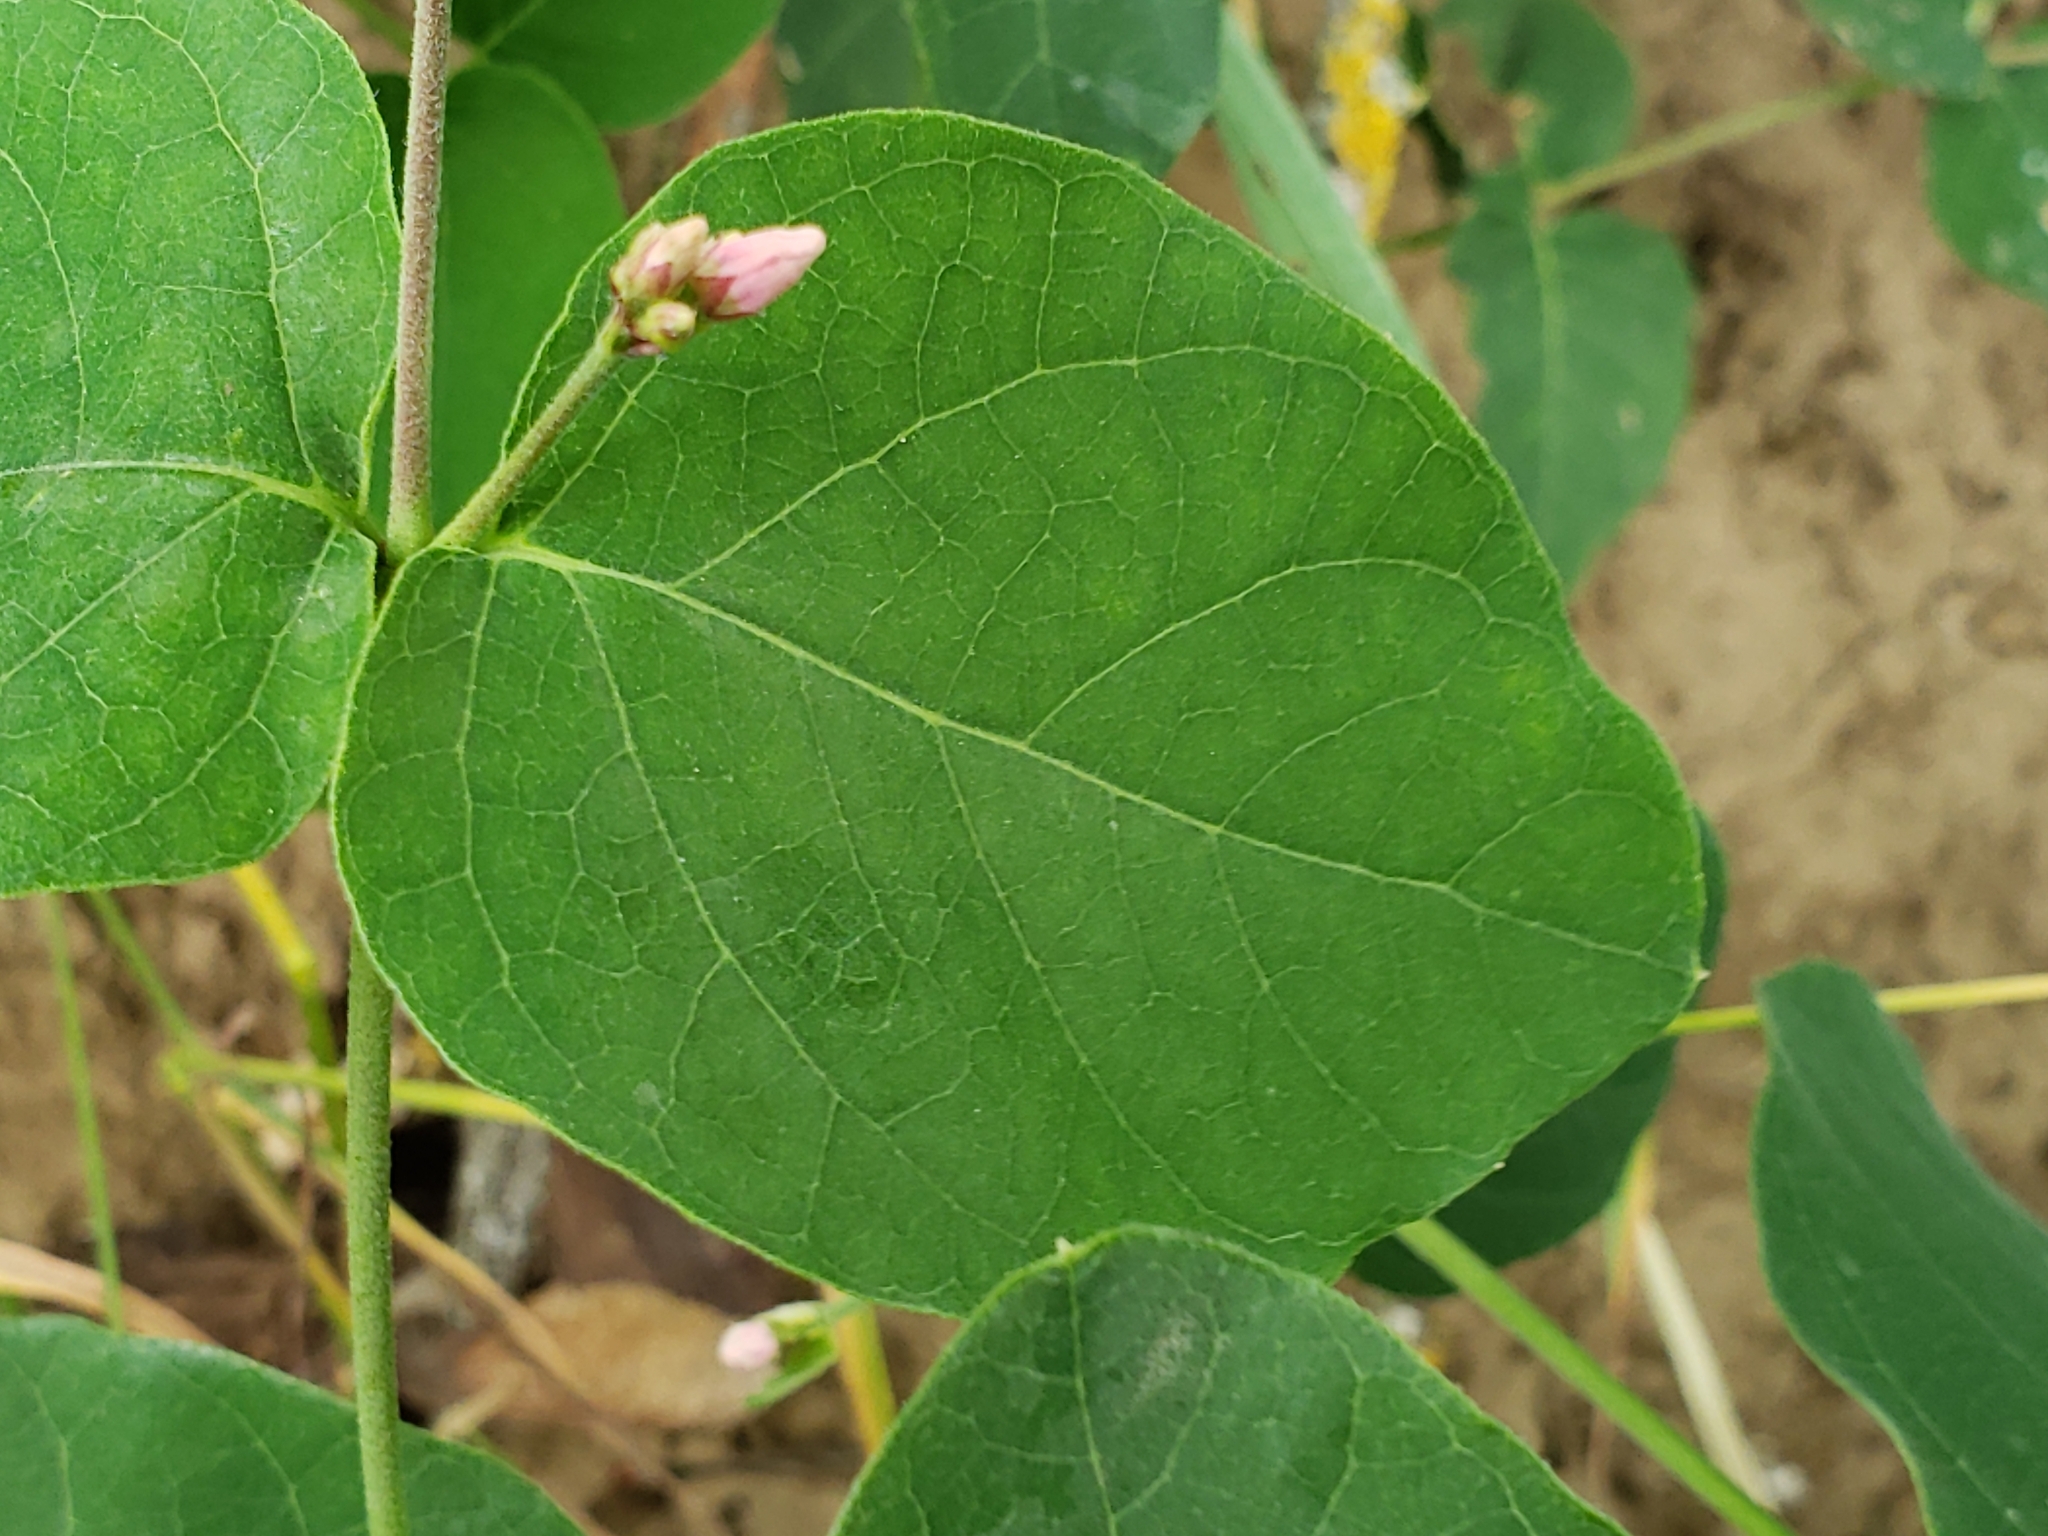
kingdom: Plantae
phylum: Tracheophyta
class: Magnoliopsida
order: Gentianales
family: Apocynaceae
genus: Apocynum
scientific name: Apocynum androsaemifolium
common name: Spreading dogbane
